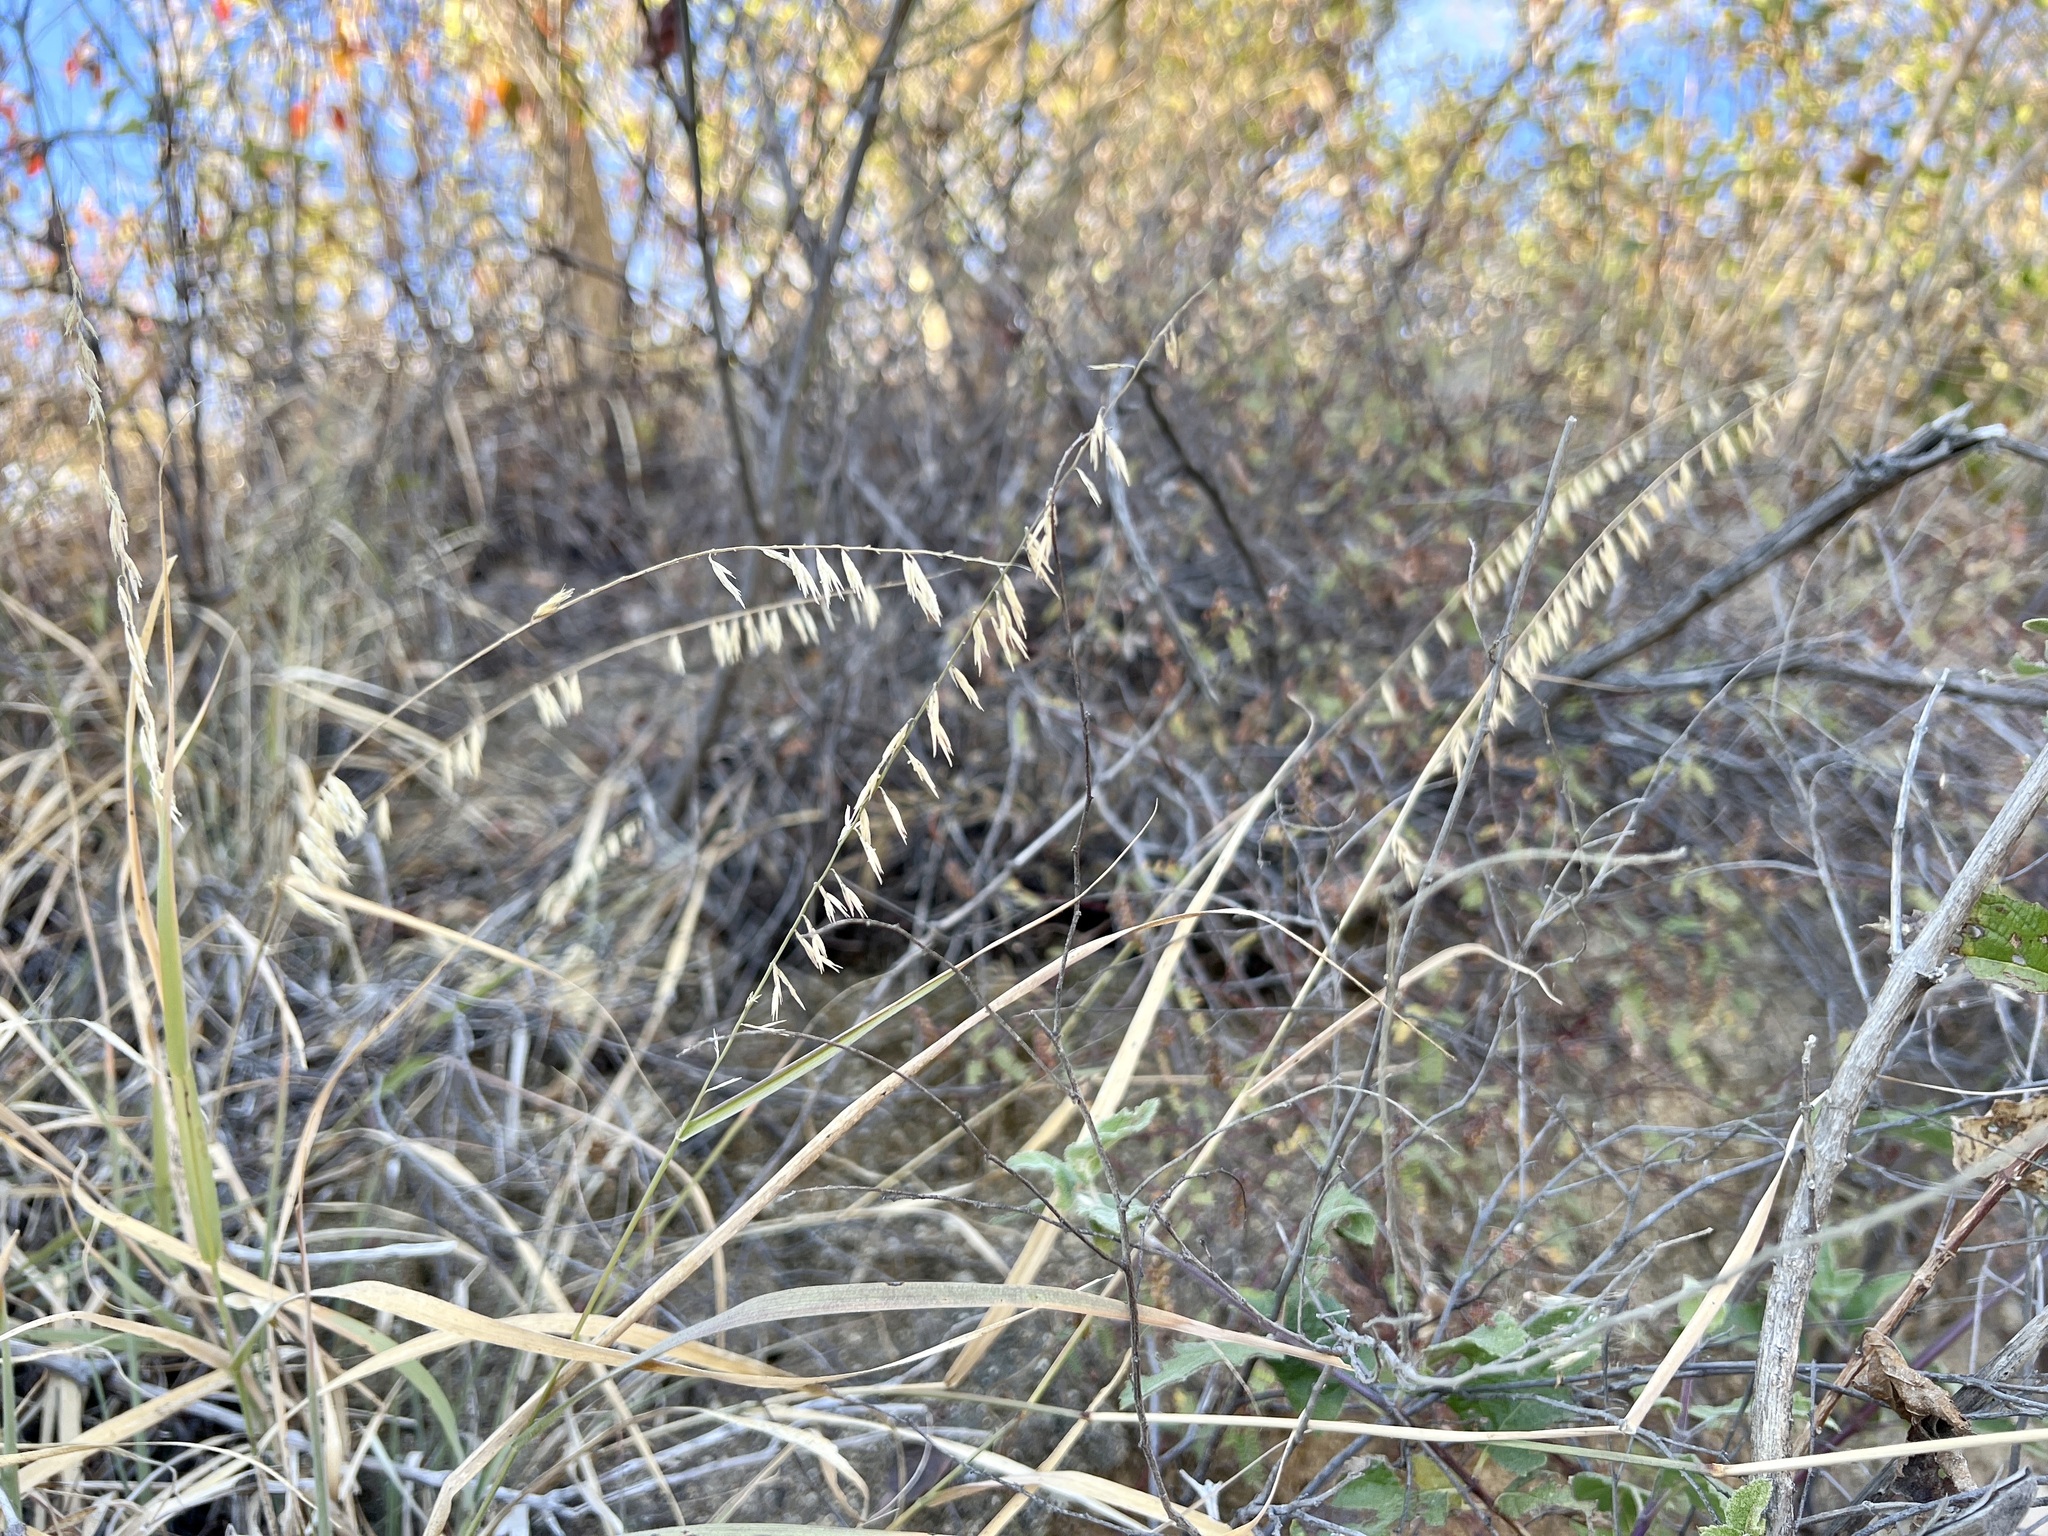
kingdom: Plantae
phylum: Tracheophyta
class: Liliopsida
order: Poales
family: Poaceae
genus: Bouteloua
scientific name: Bouteloua curtipendula
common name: Side-oats grama
